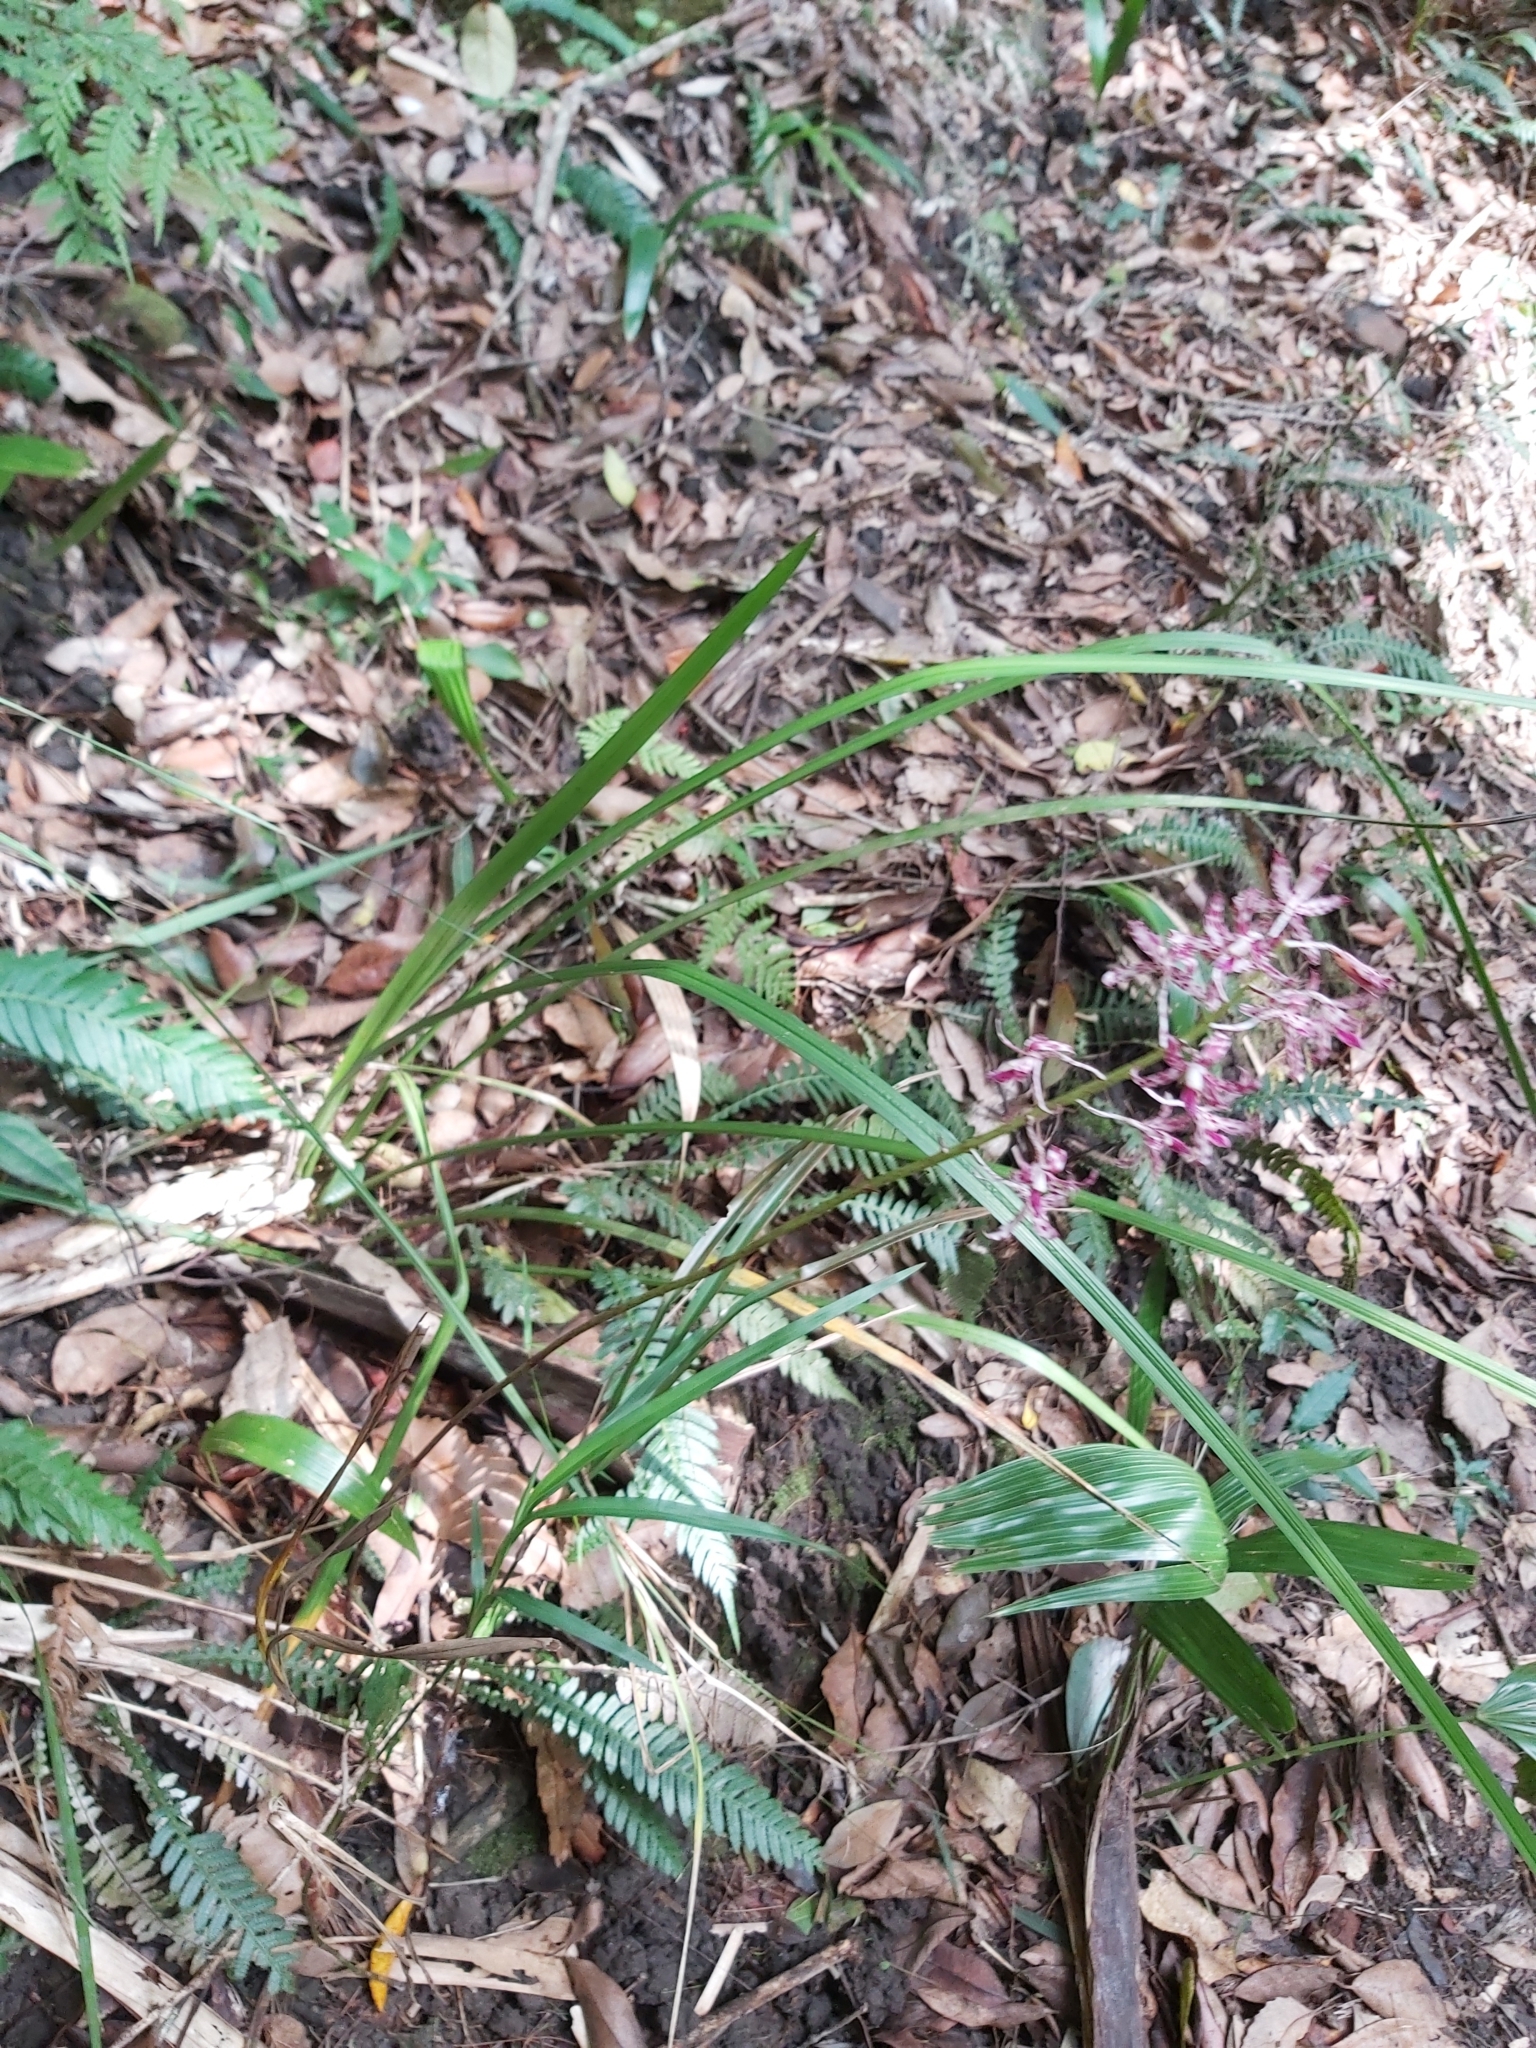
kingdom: Plantae
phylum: Tracheophyta
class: Liliopsida
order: Asparagales
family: Orchidaceae
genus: Dipodium
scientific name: Dipodium variegatum
